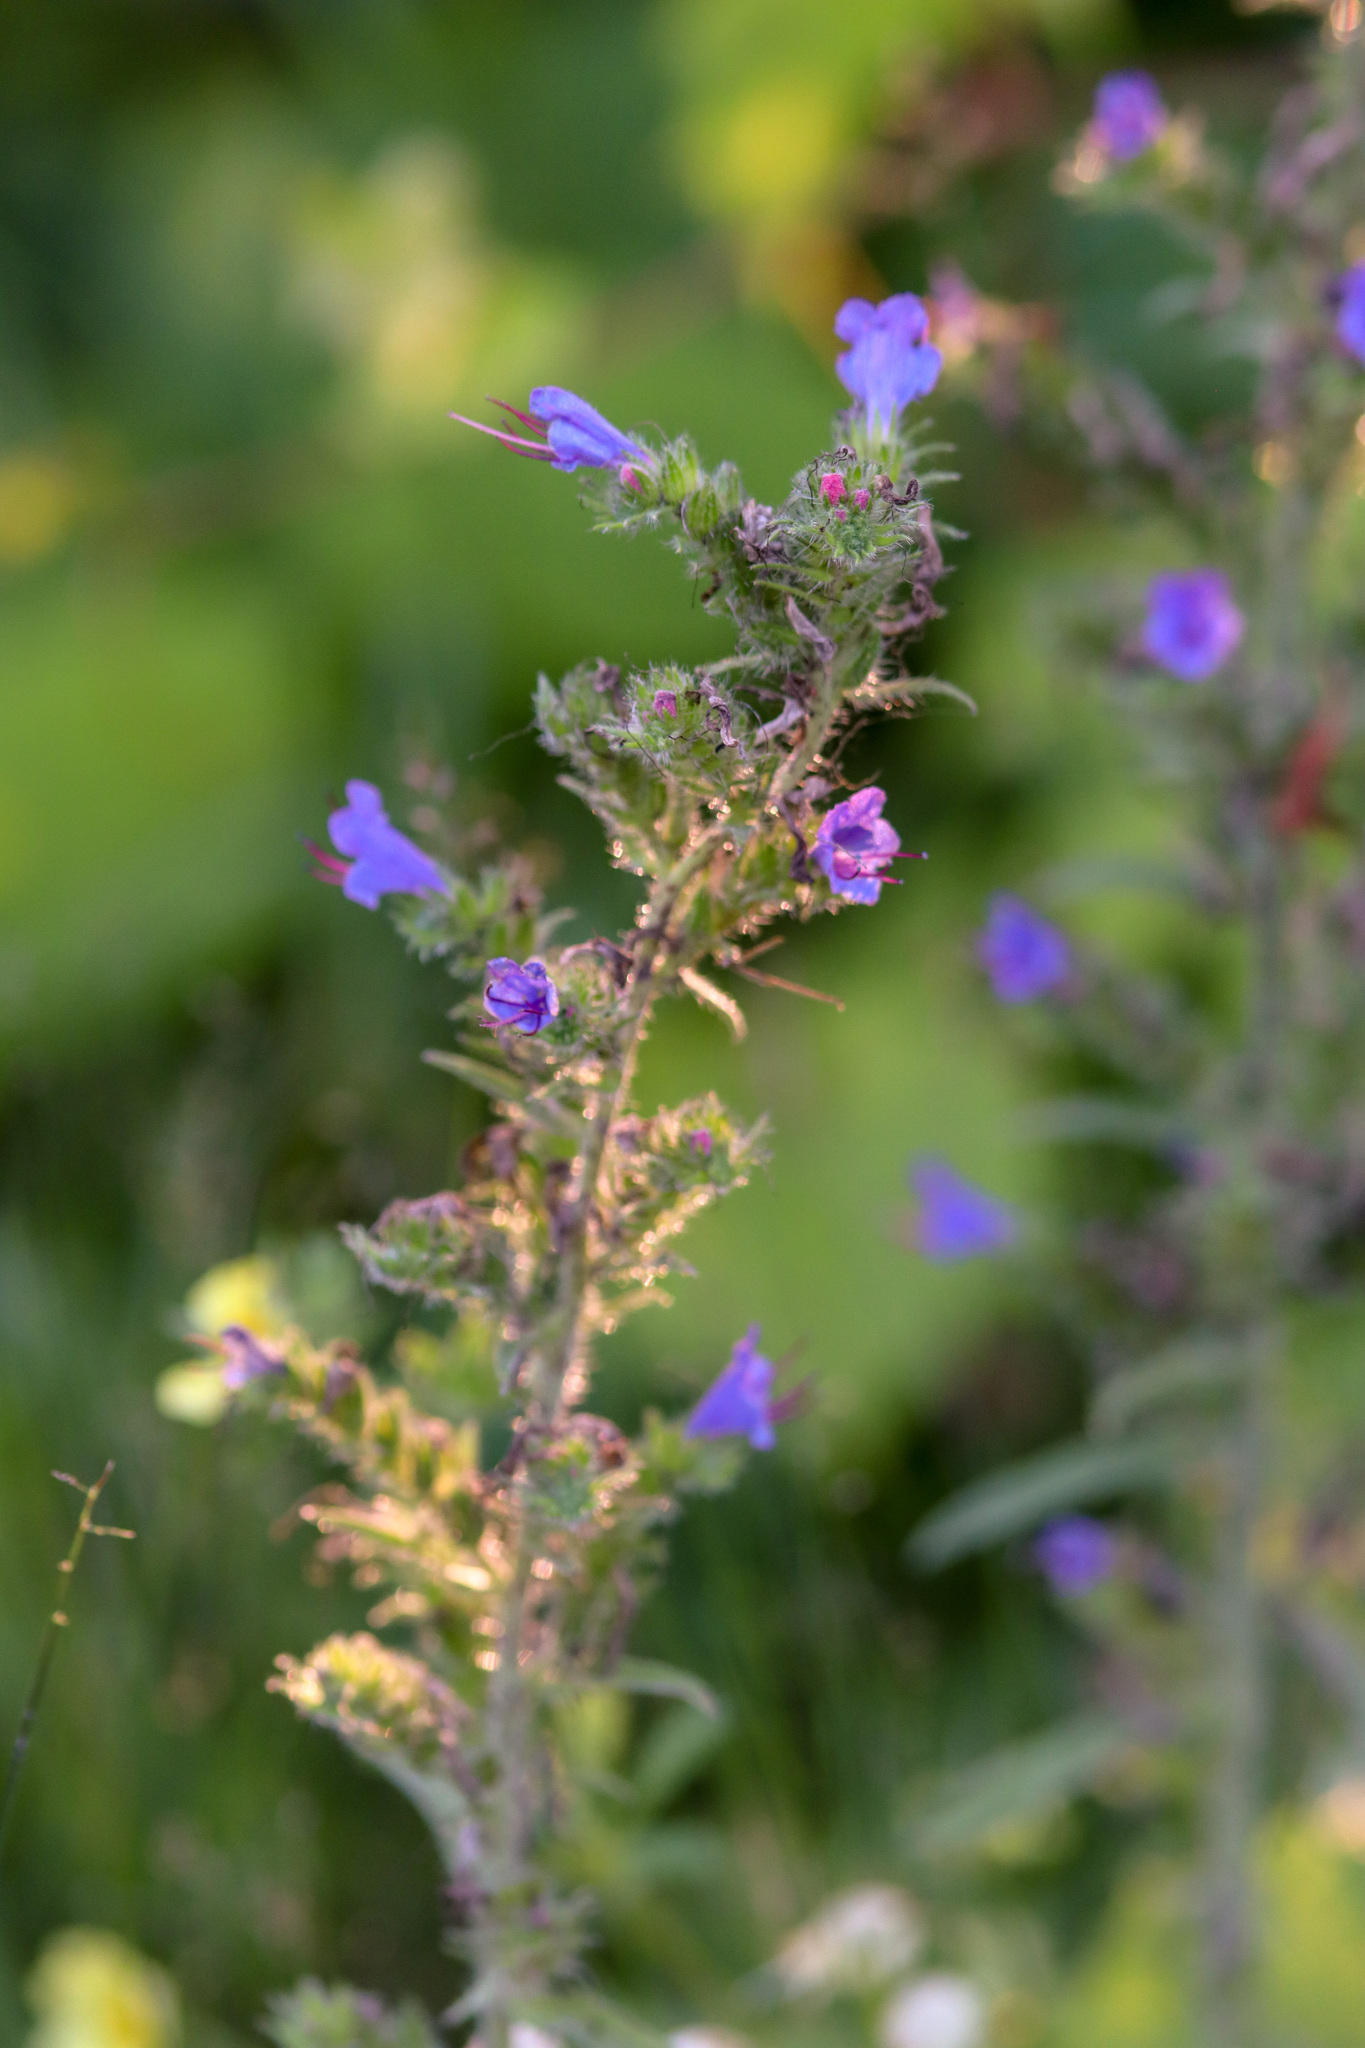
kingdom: Plantae
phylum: Tracheophyta
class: Magnoliopsida
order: Boraginales
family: Boraginaceae
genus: Echium
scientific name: Echium vulgare
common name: Common viper's bugloss
